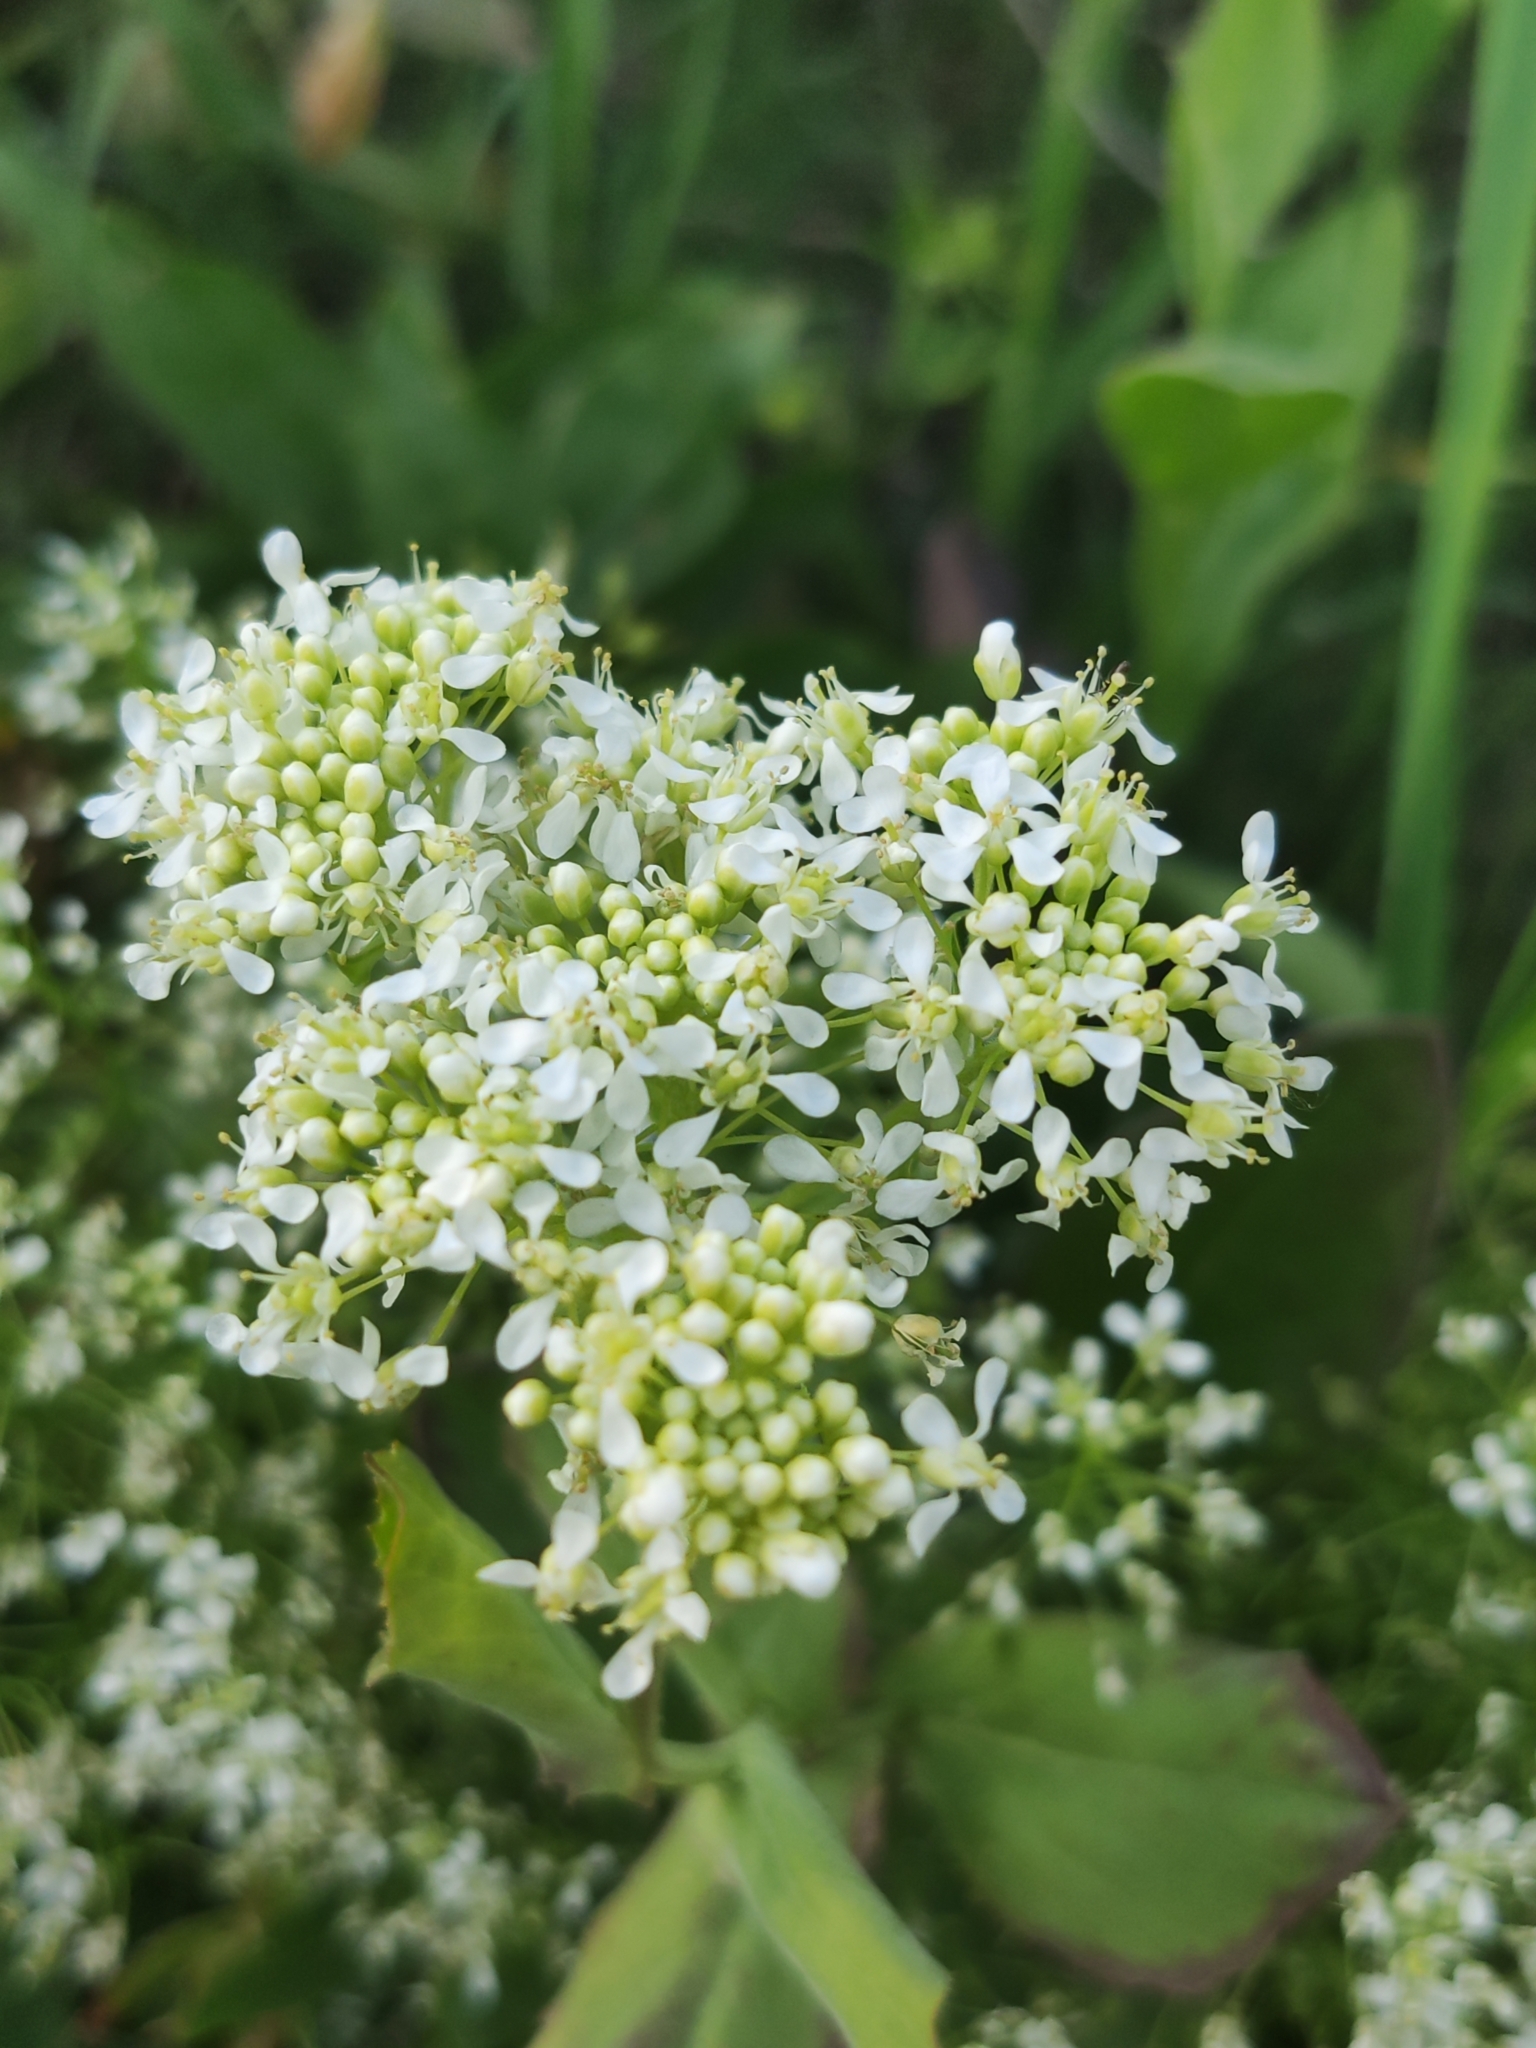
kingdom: Plantae
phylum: Tracheophyta
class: Magnoliopsida
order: Brassicales
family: Brassicaceae
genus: Lepidium
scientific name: Lepidium draba
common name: Hoary cress
